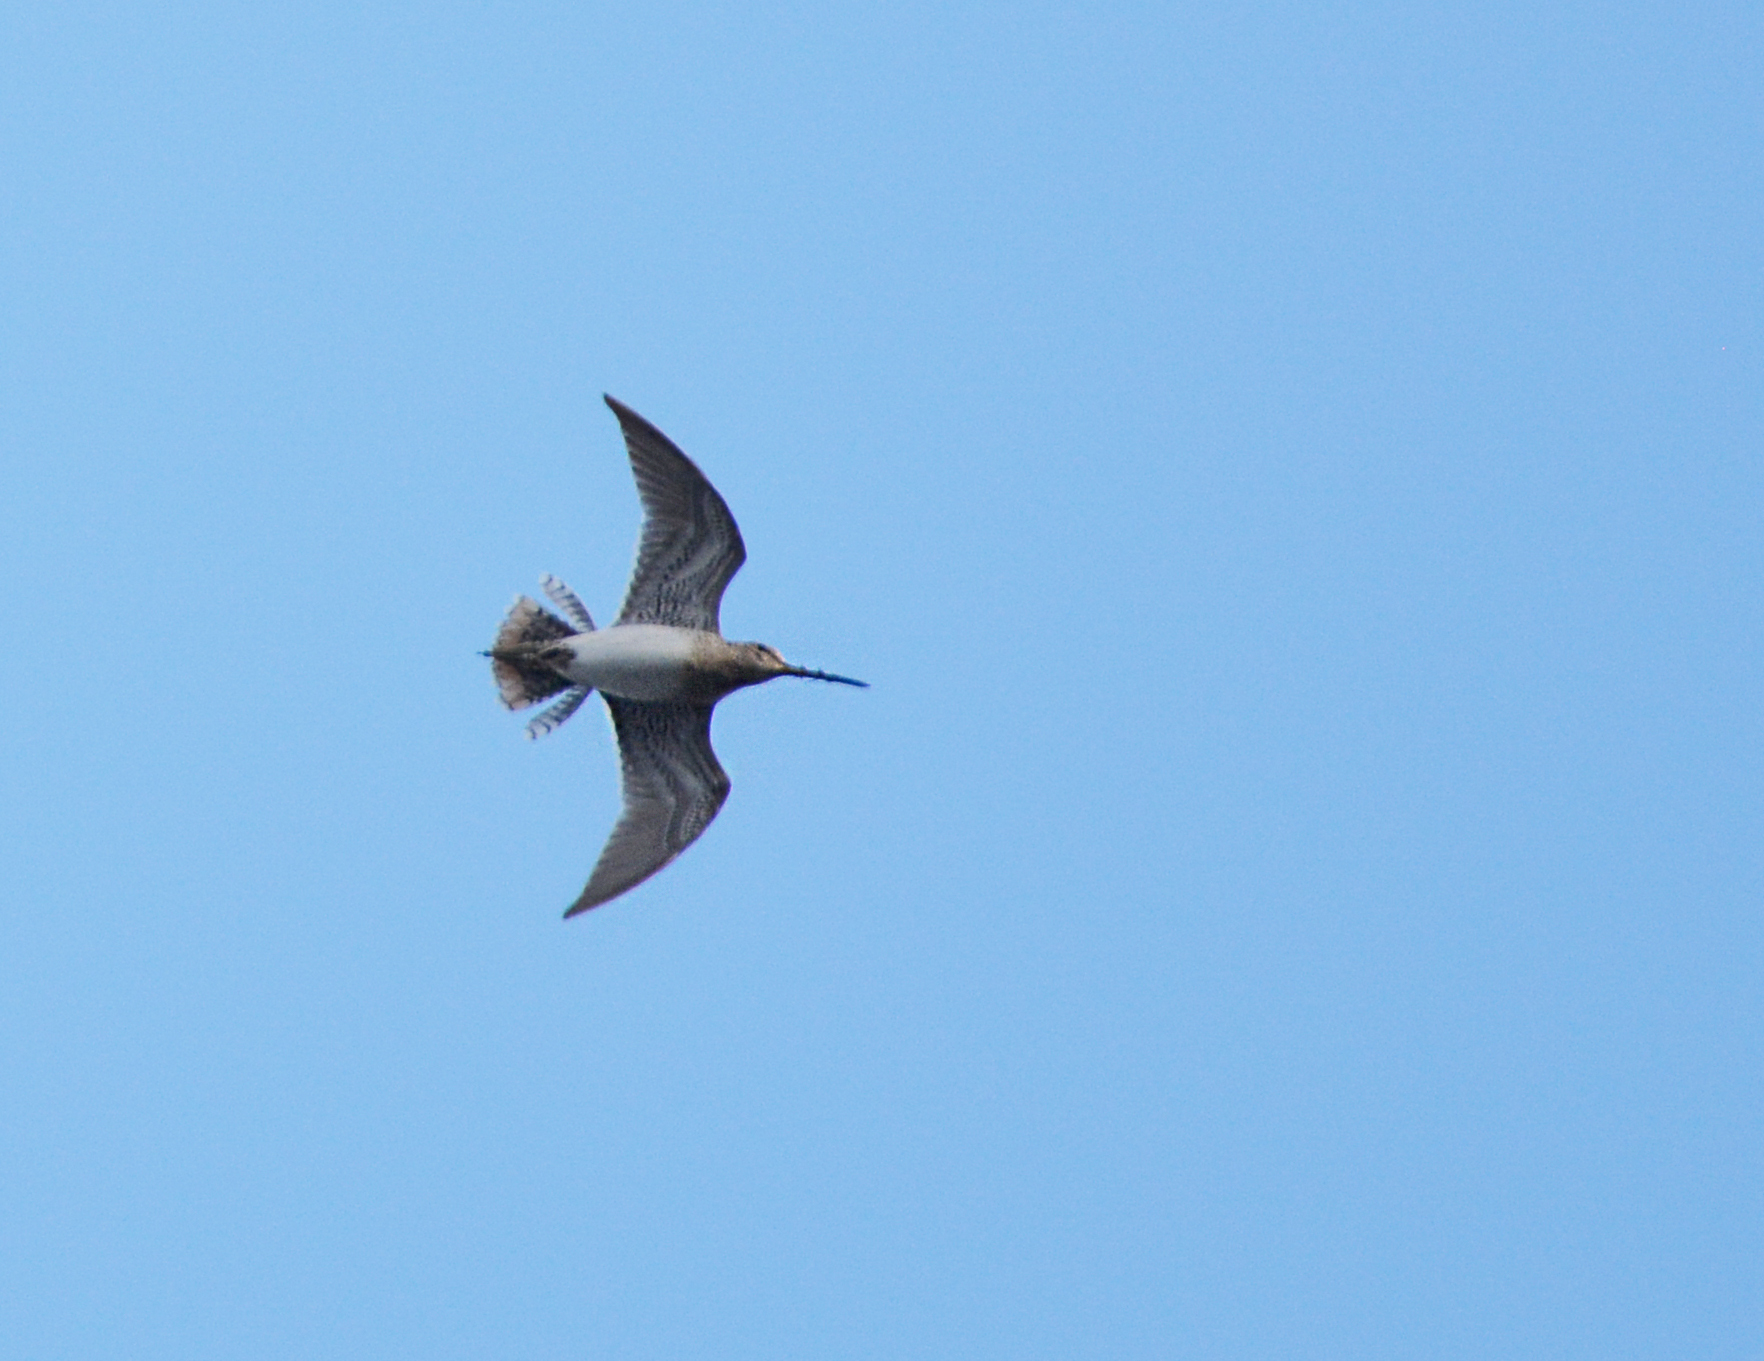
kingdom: Animalia
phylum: Chordata
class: Aves
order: Charadriiformes
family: Scolopacidae
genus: Gallinago
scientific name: Gallinago gallinago
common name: Common snipe
